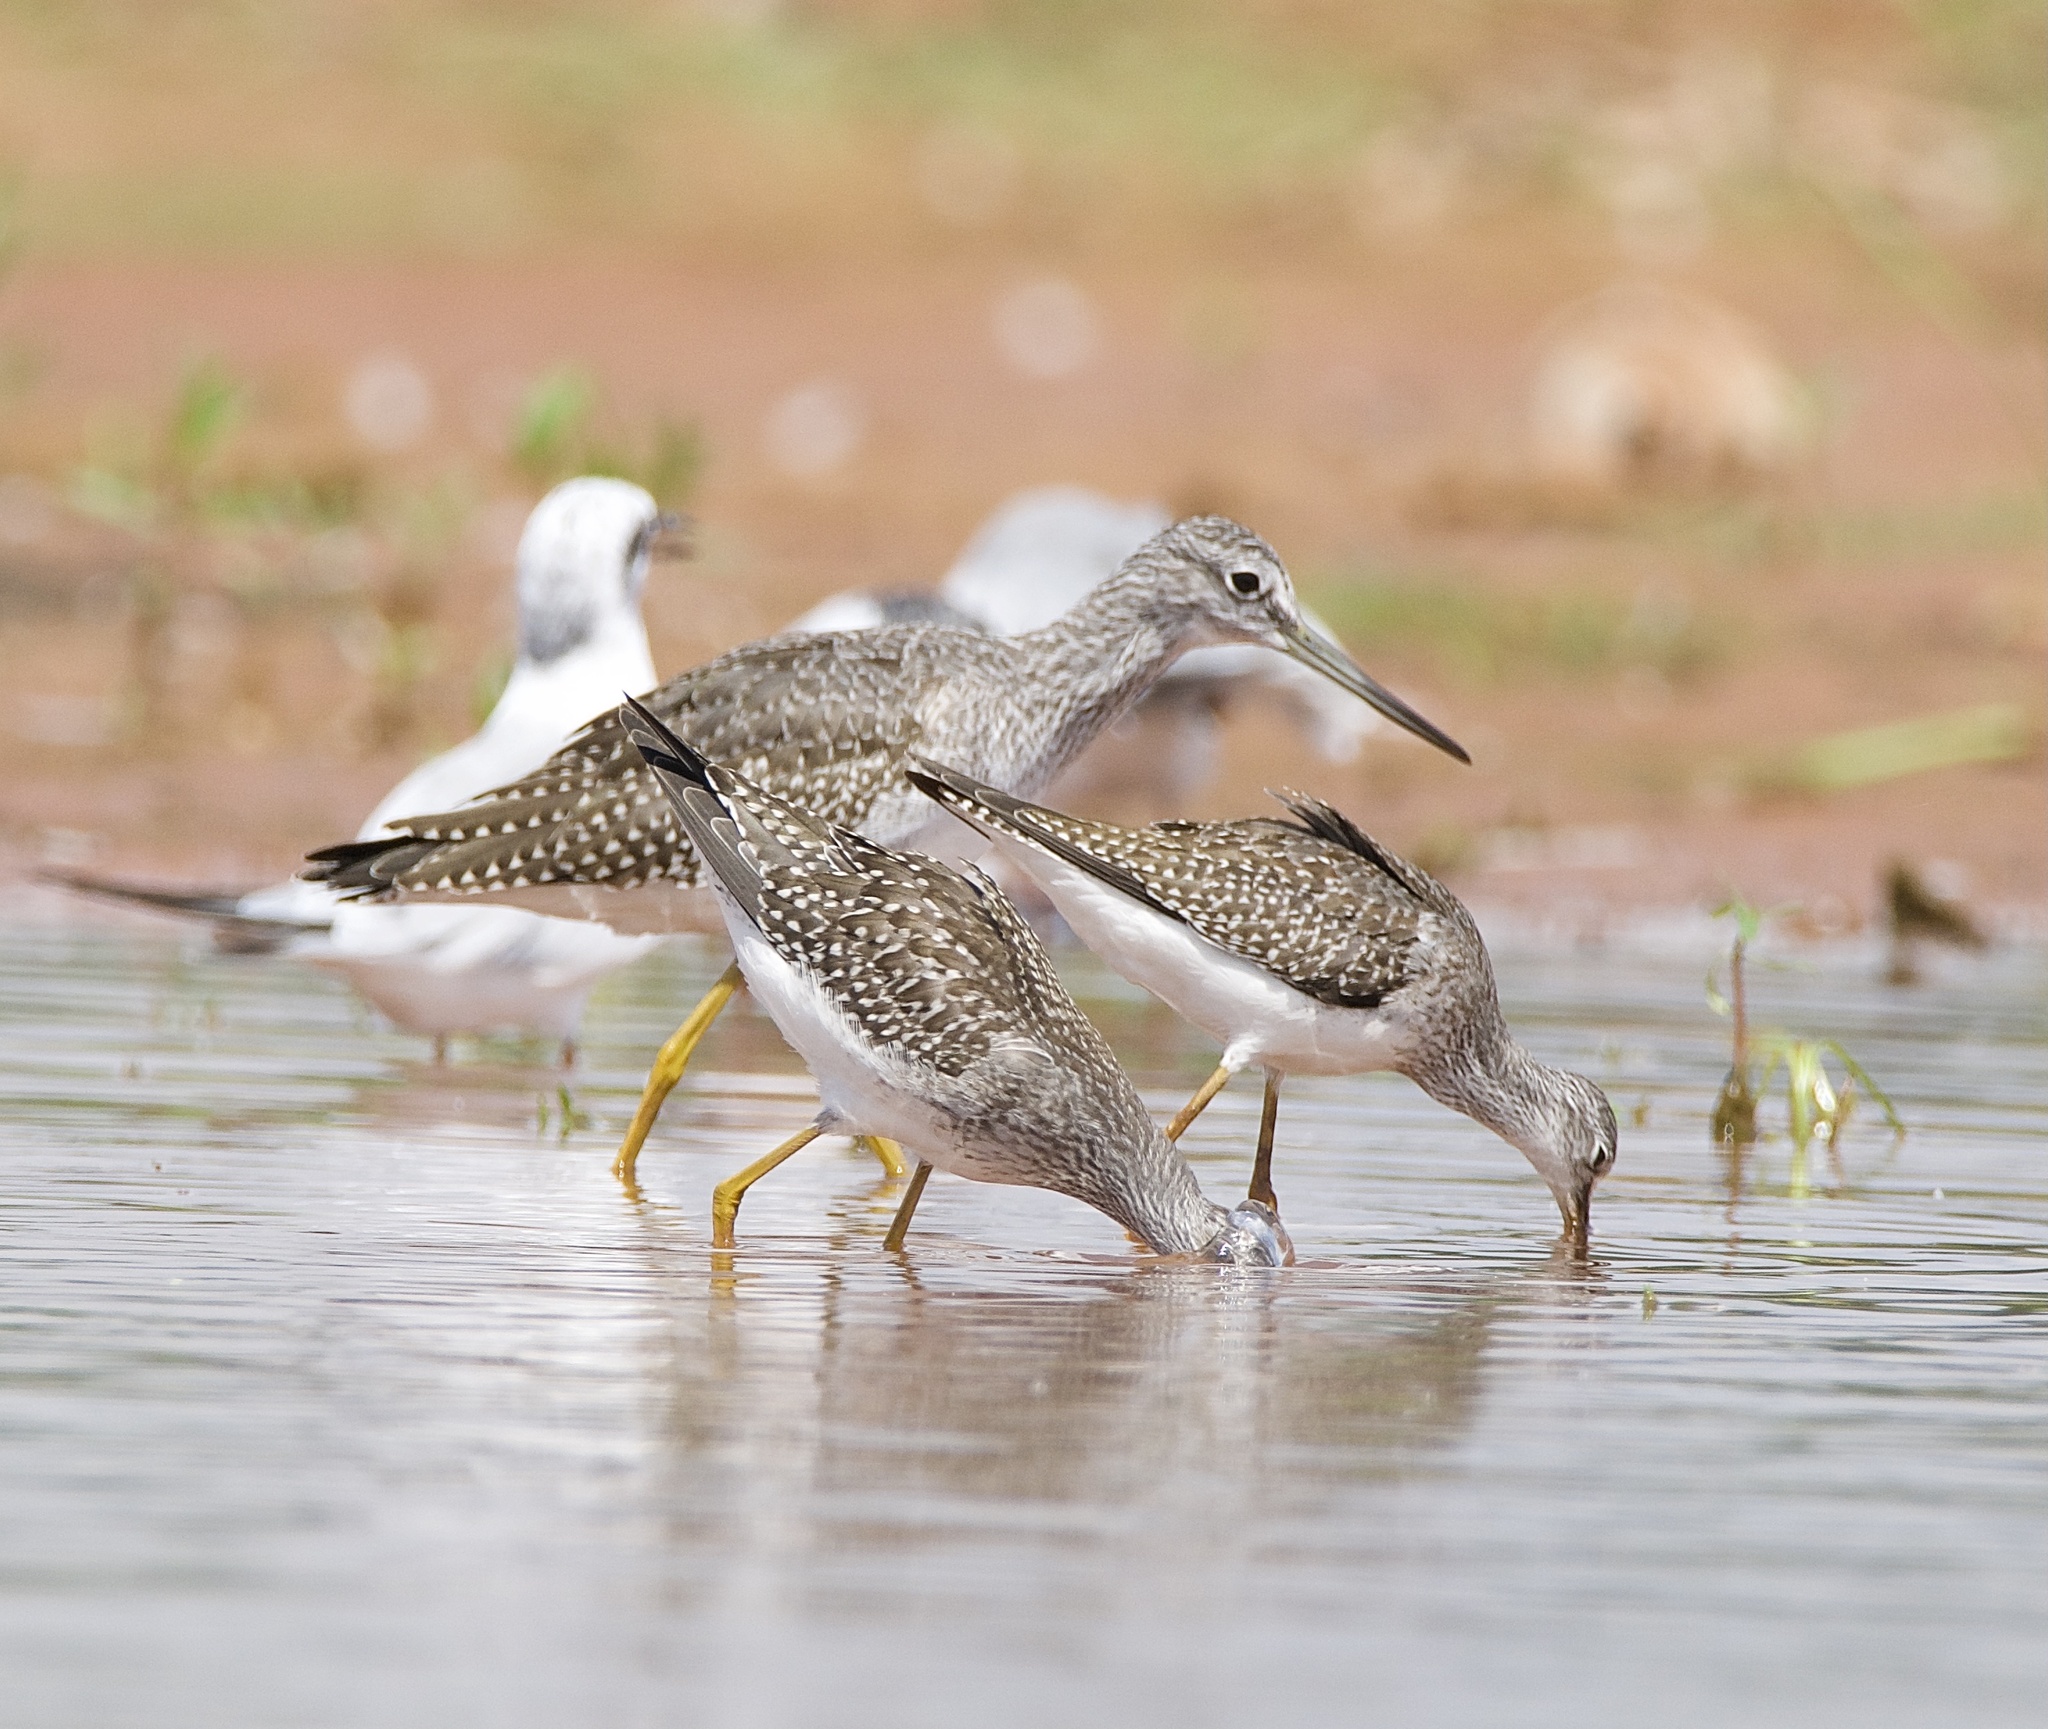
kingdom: Animalia
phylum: Chordata
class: Aves
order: Charadriiformes
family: Scolopacidae
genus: Tringa
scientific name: Tringa melanoleuca
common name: Greater yellowlegs
